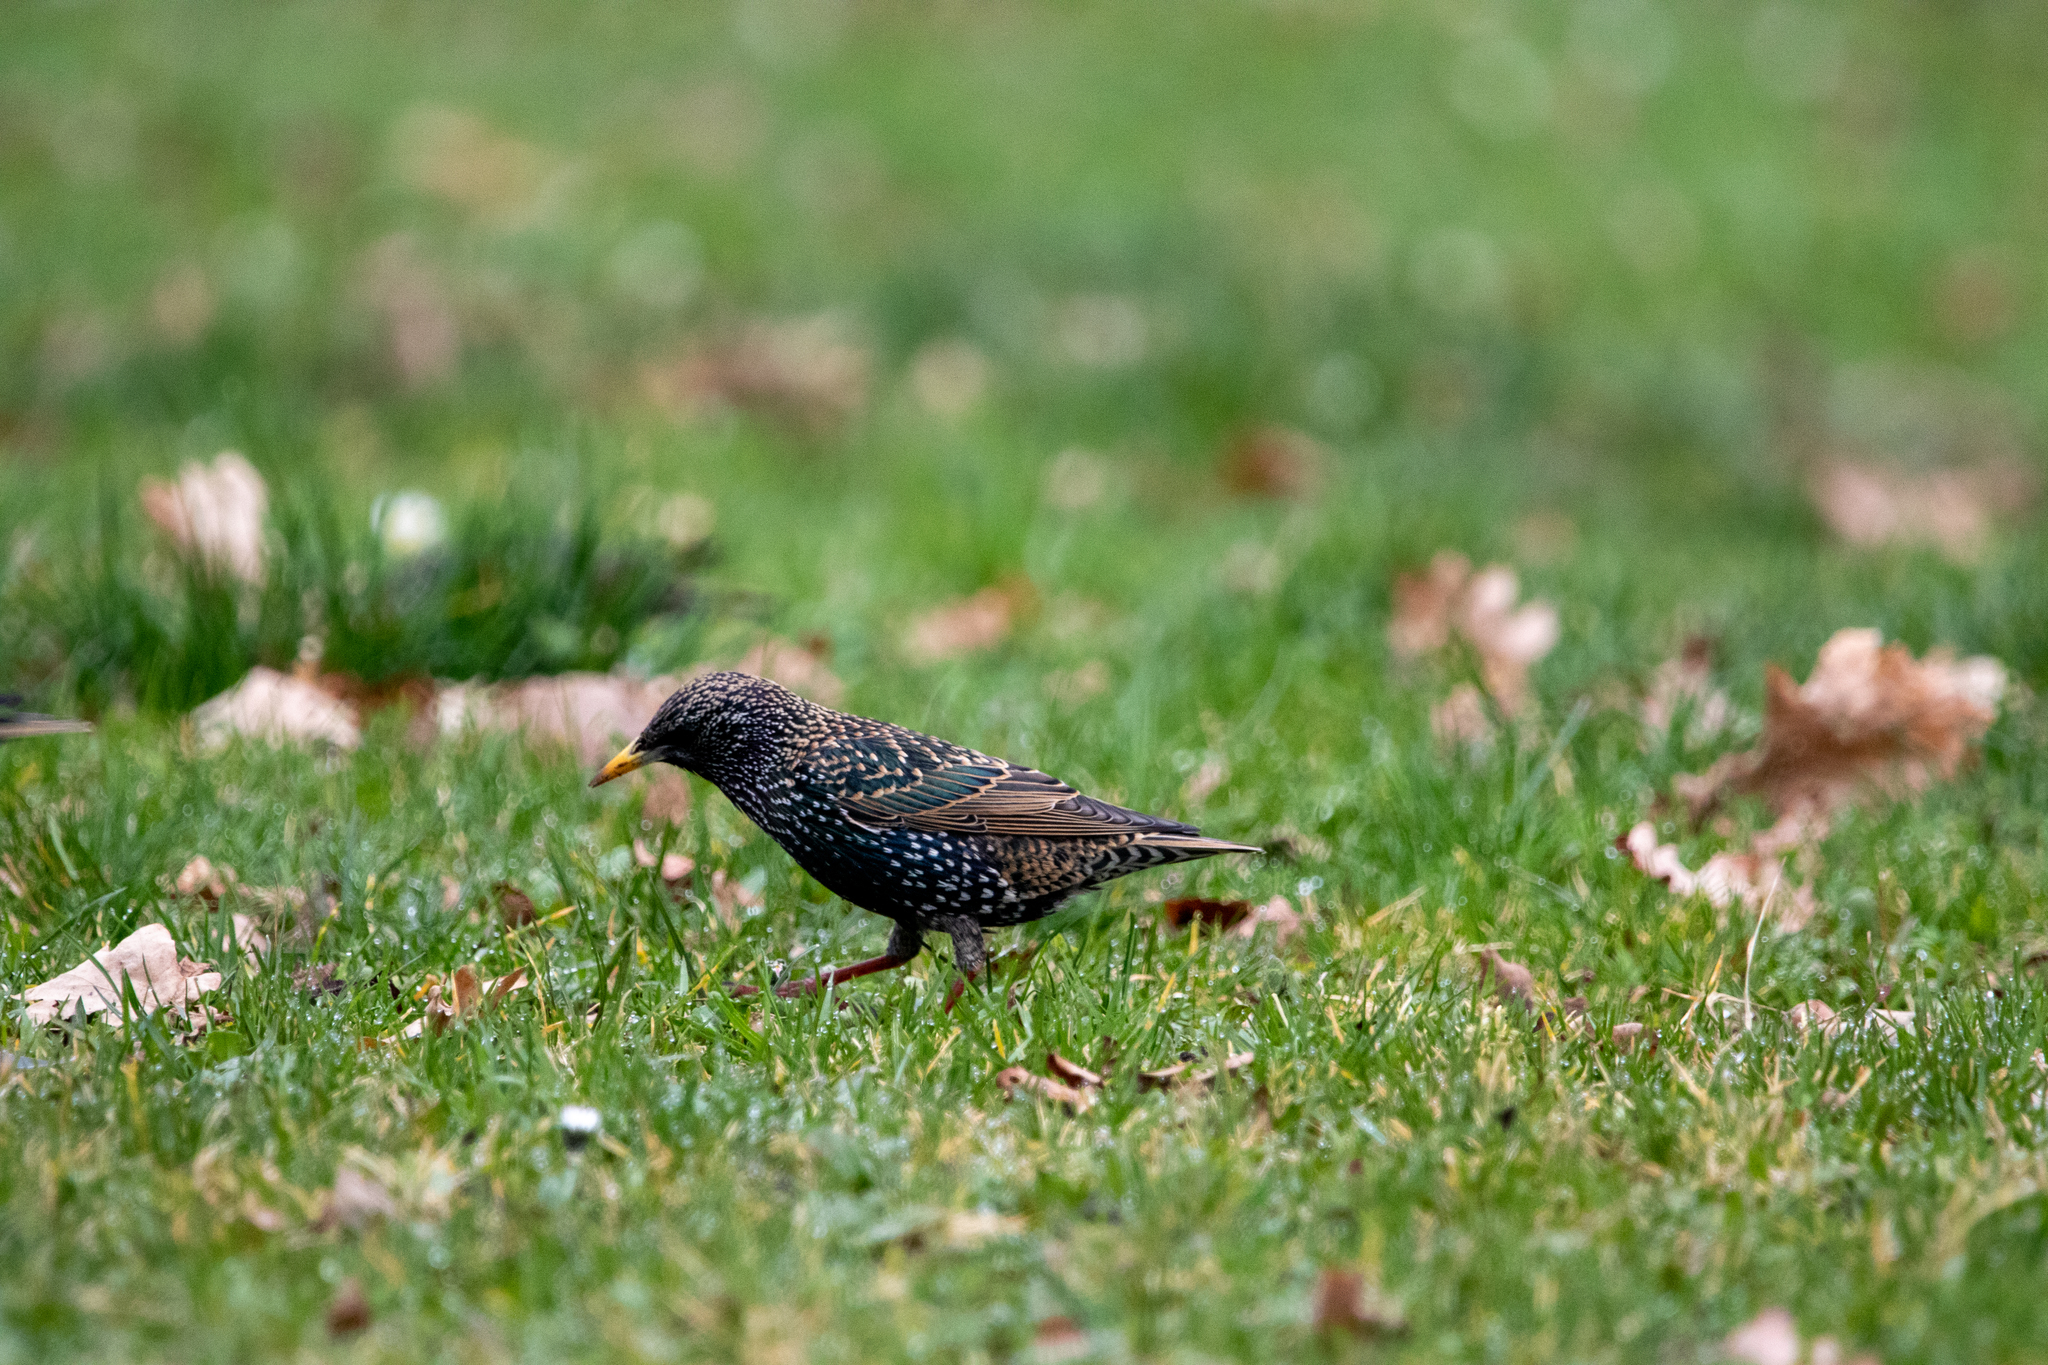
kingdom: Animalia
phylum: Chordata
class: Aves
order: Passeriformes
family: Sturnidae
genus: Sturnus
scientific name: Sturnus vulgaris
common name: Common starling
